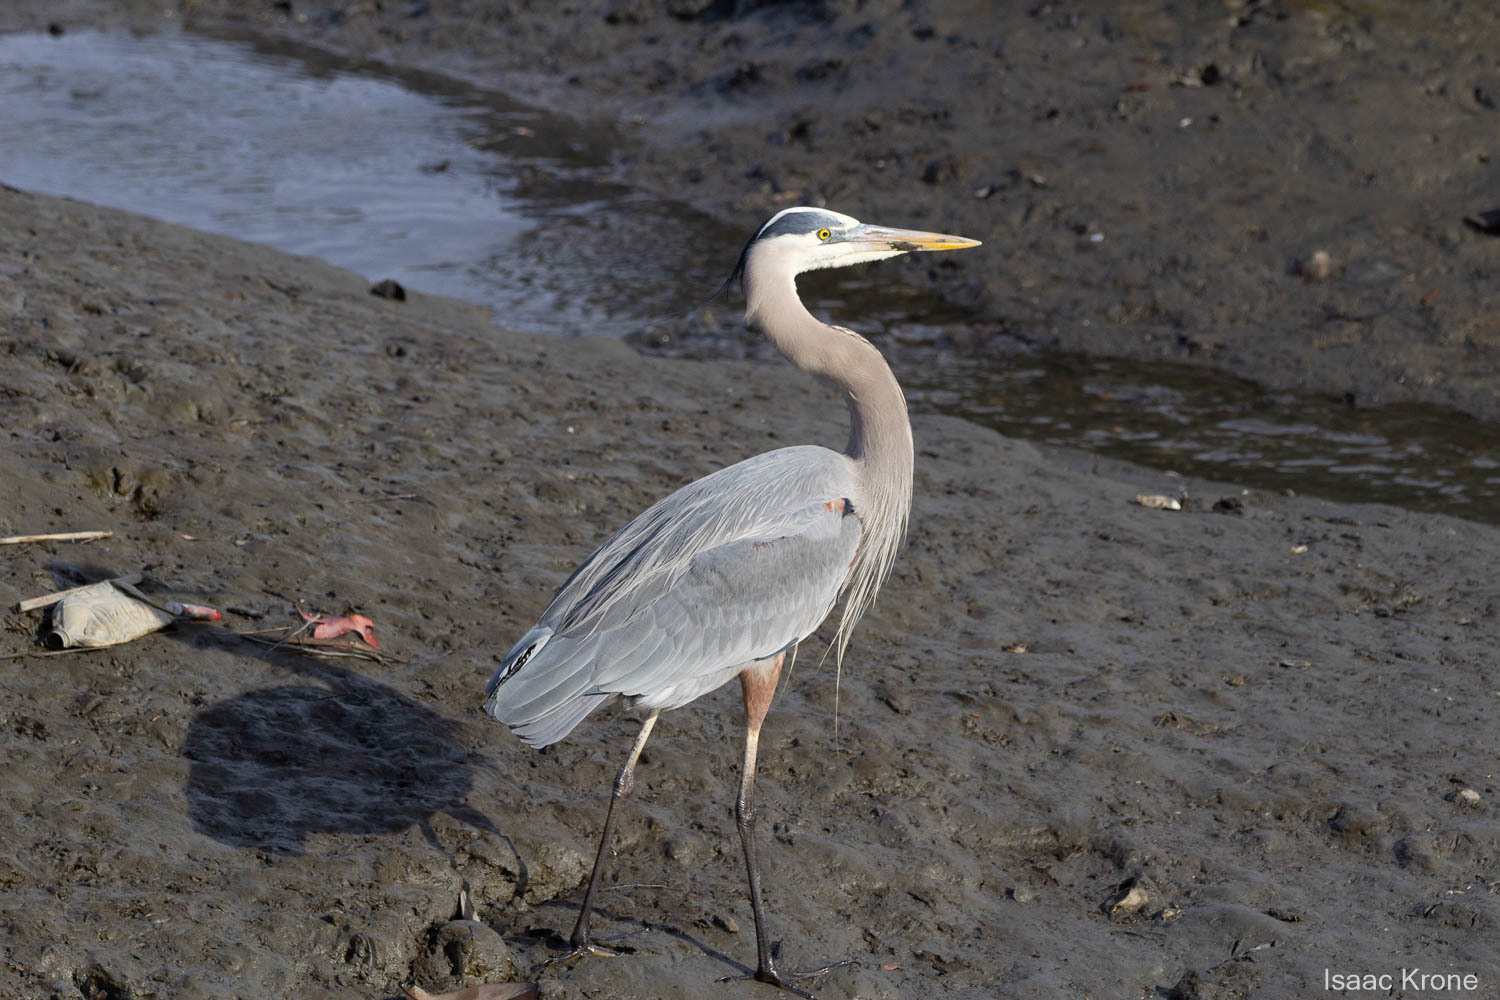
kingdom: Animalia
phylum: Chordata
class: Aves
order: Pelecaniformes
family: Ardeidae
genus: Ardea
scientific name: Ardea herodias
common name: Great blue heron
